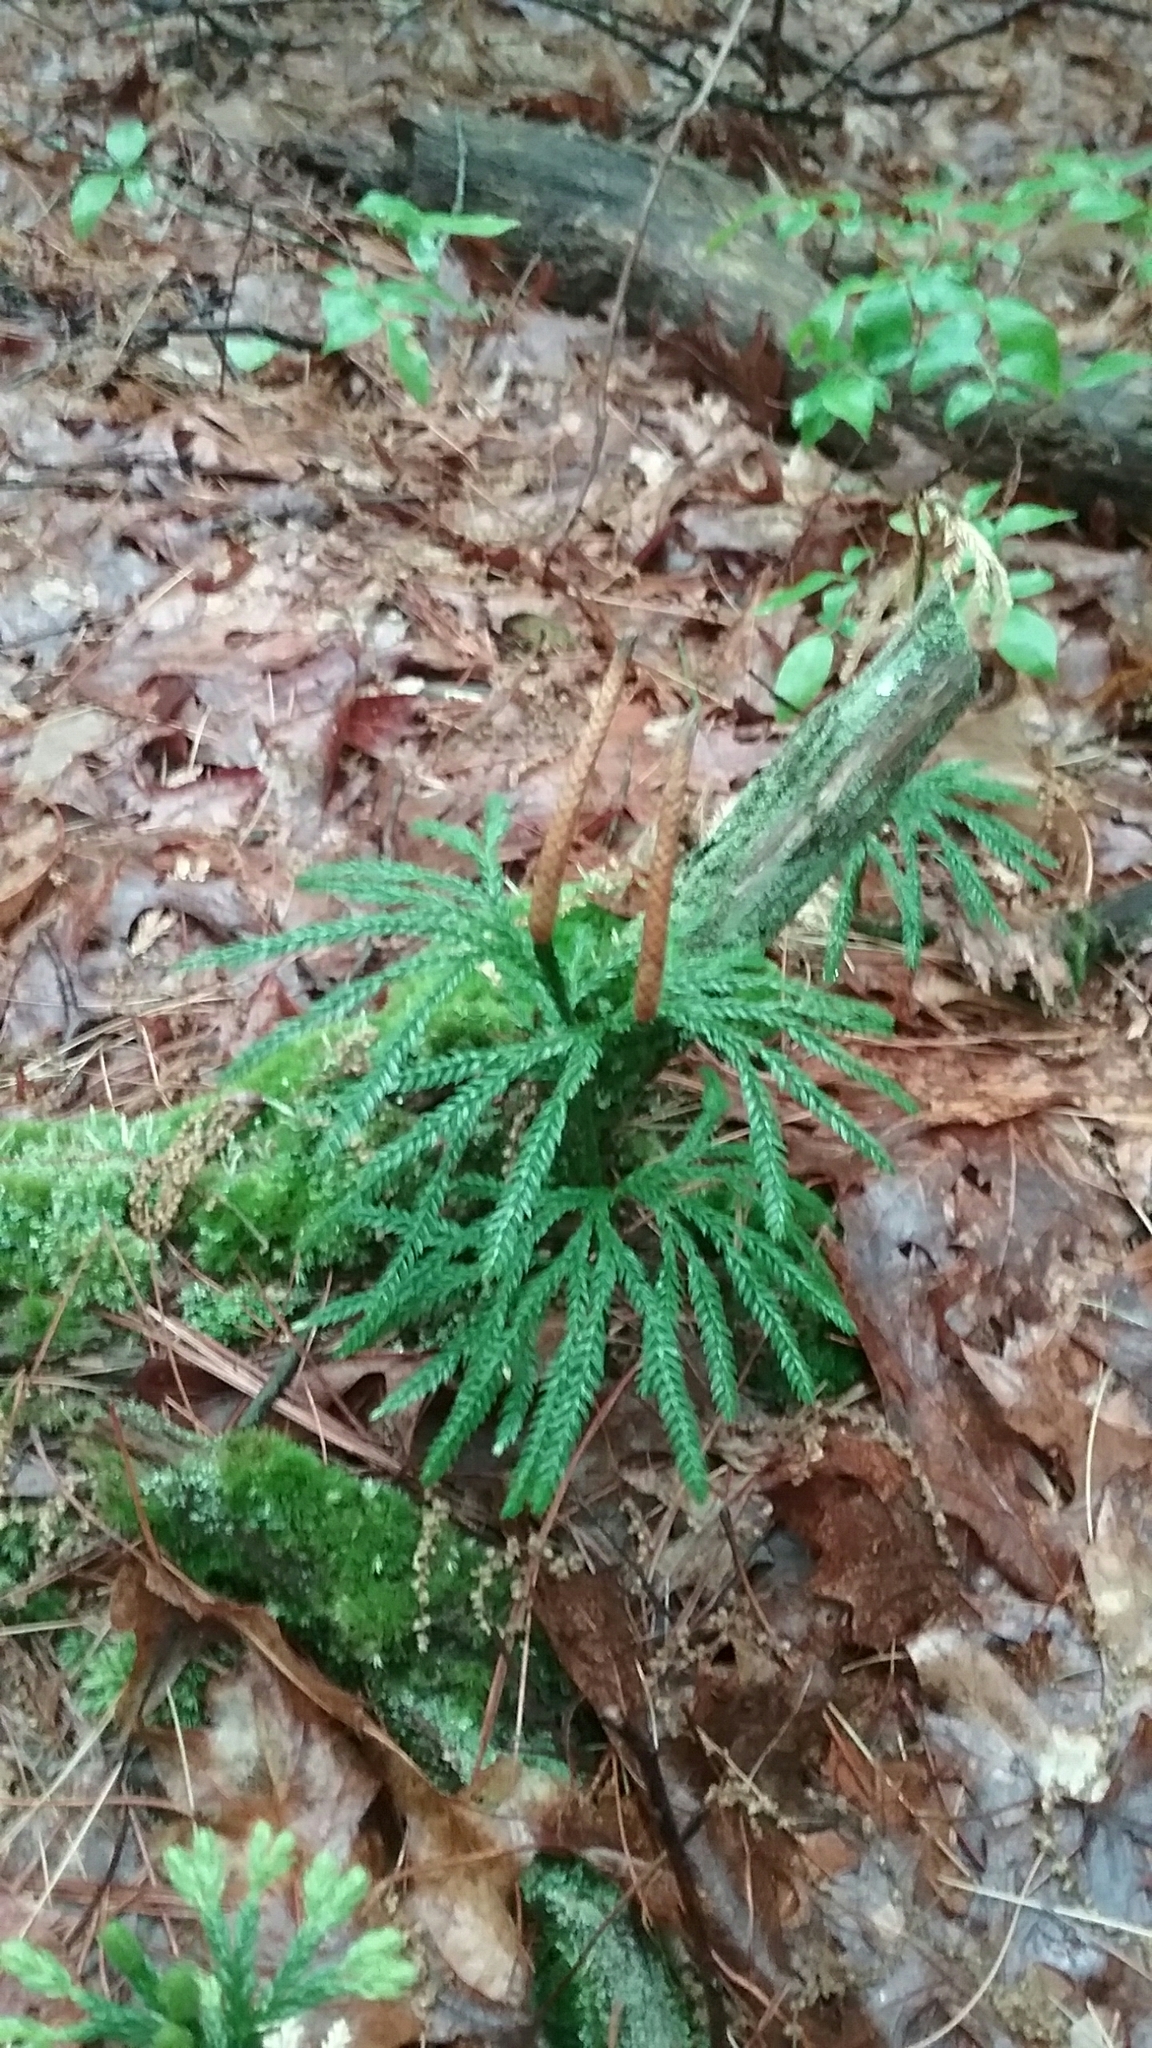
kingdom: Plantae
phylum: Tracheophyta
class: Lycopodiopsida
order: Lycopodiales
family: Lycopodiaceae
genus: Diphasiastrum
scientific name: Diphasiastrum digitatum
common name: Southern running-pine
